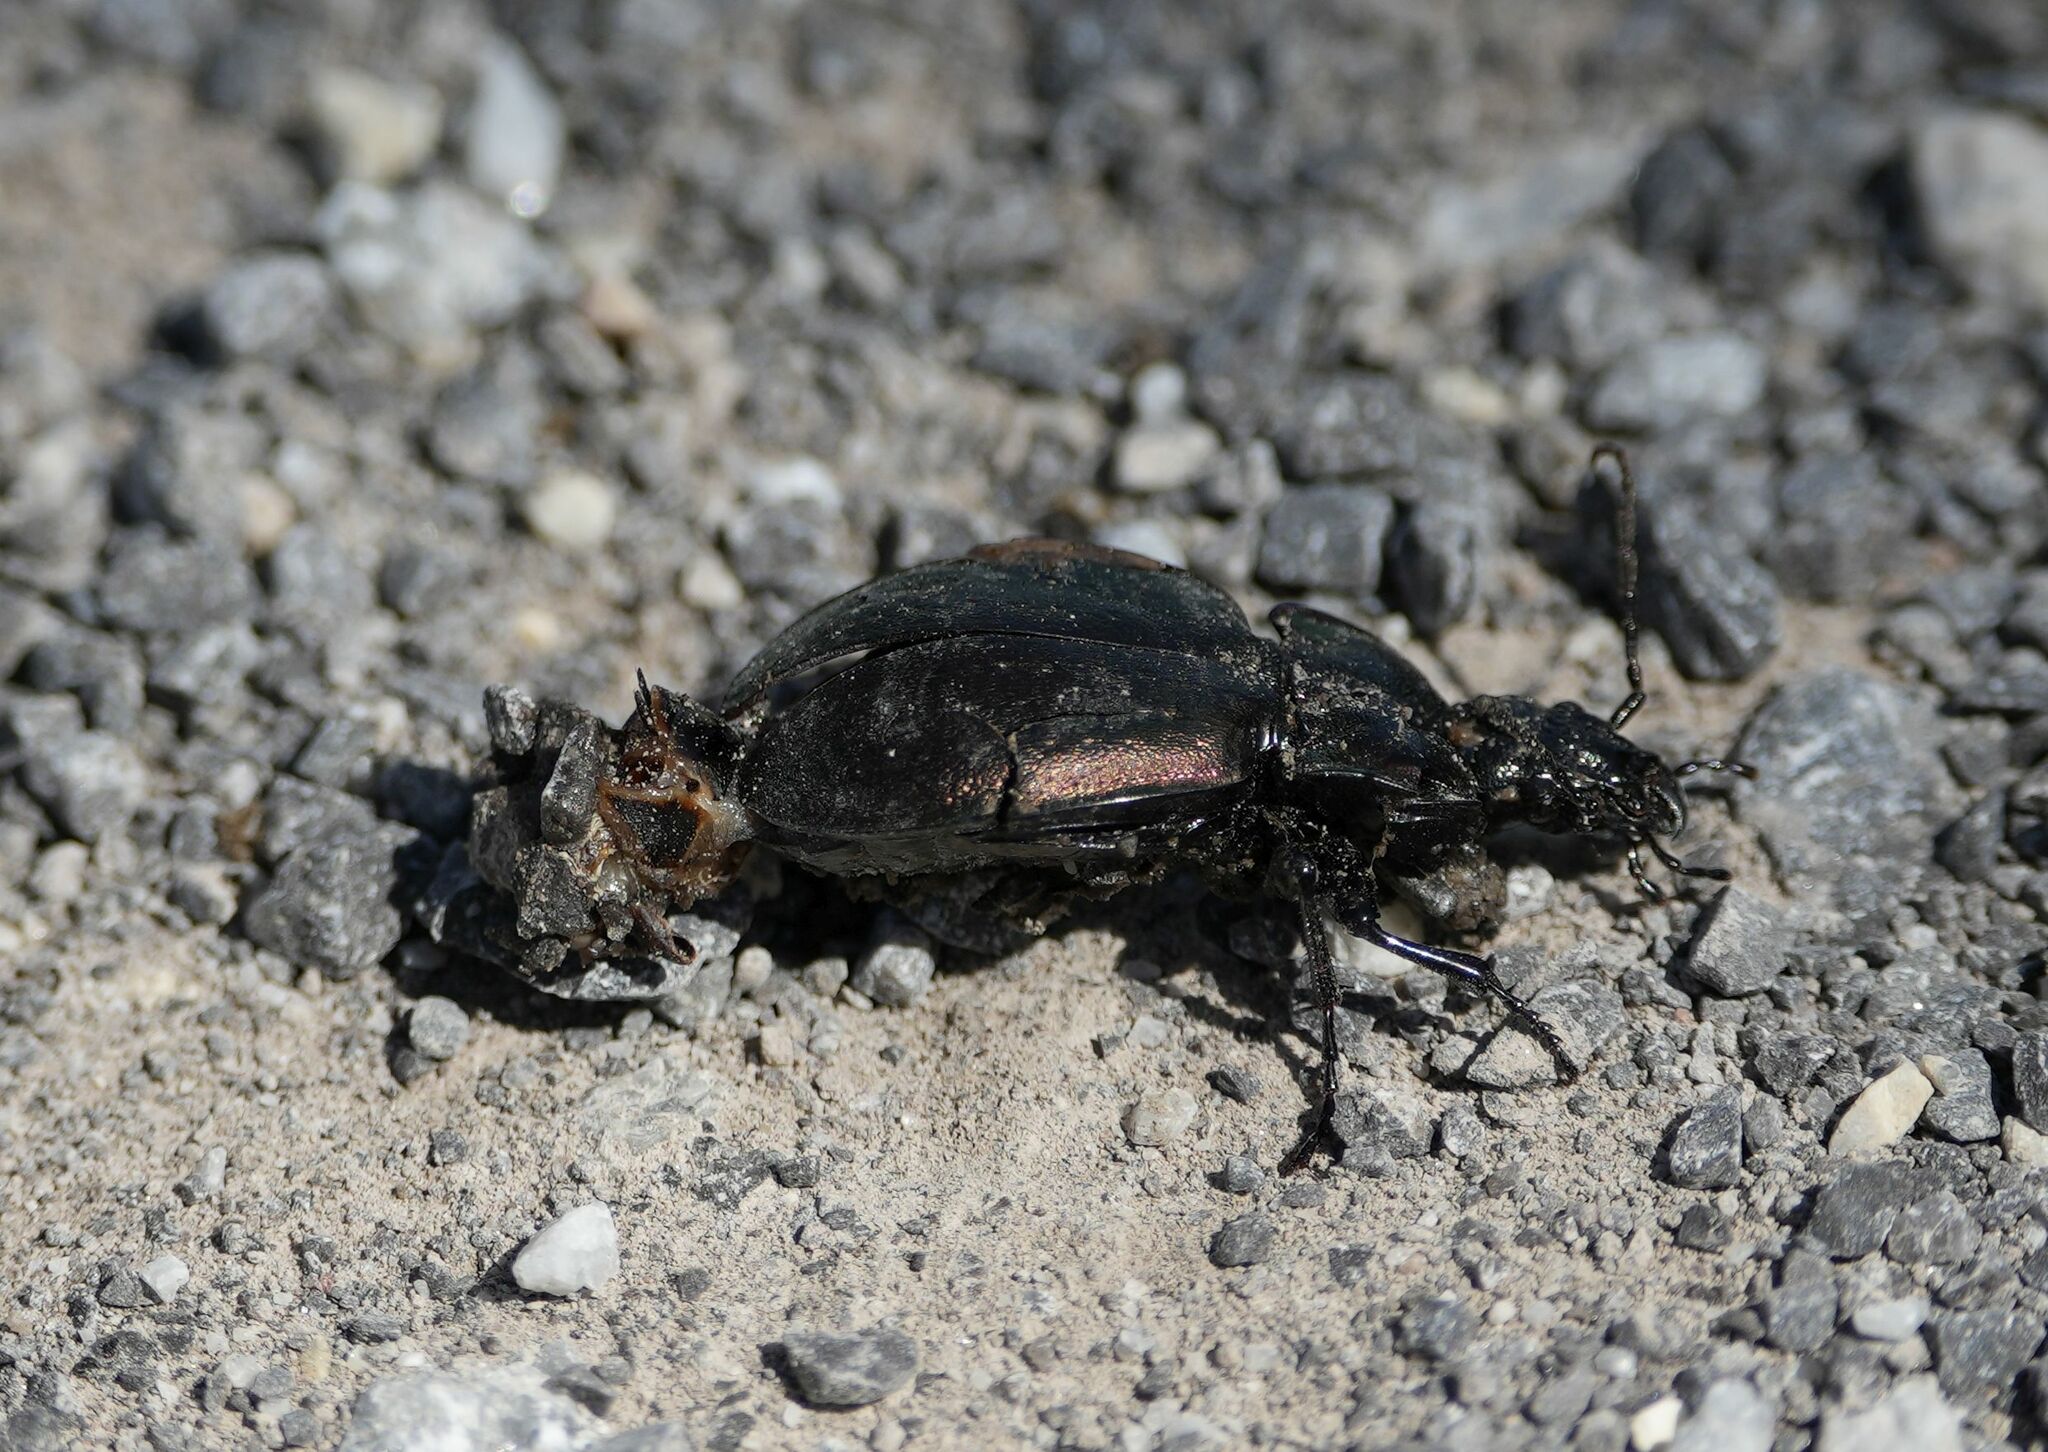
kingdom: Animalia
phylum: Arthropoda
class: Insecta
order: Coleoptera
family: Carabidae
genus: Carabus
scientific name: Carabus nemoralis
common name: European ground beetle
